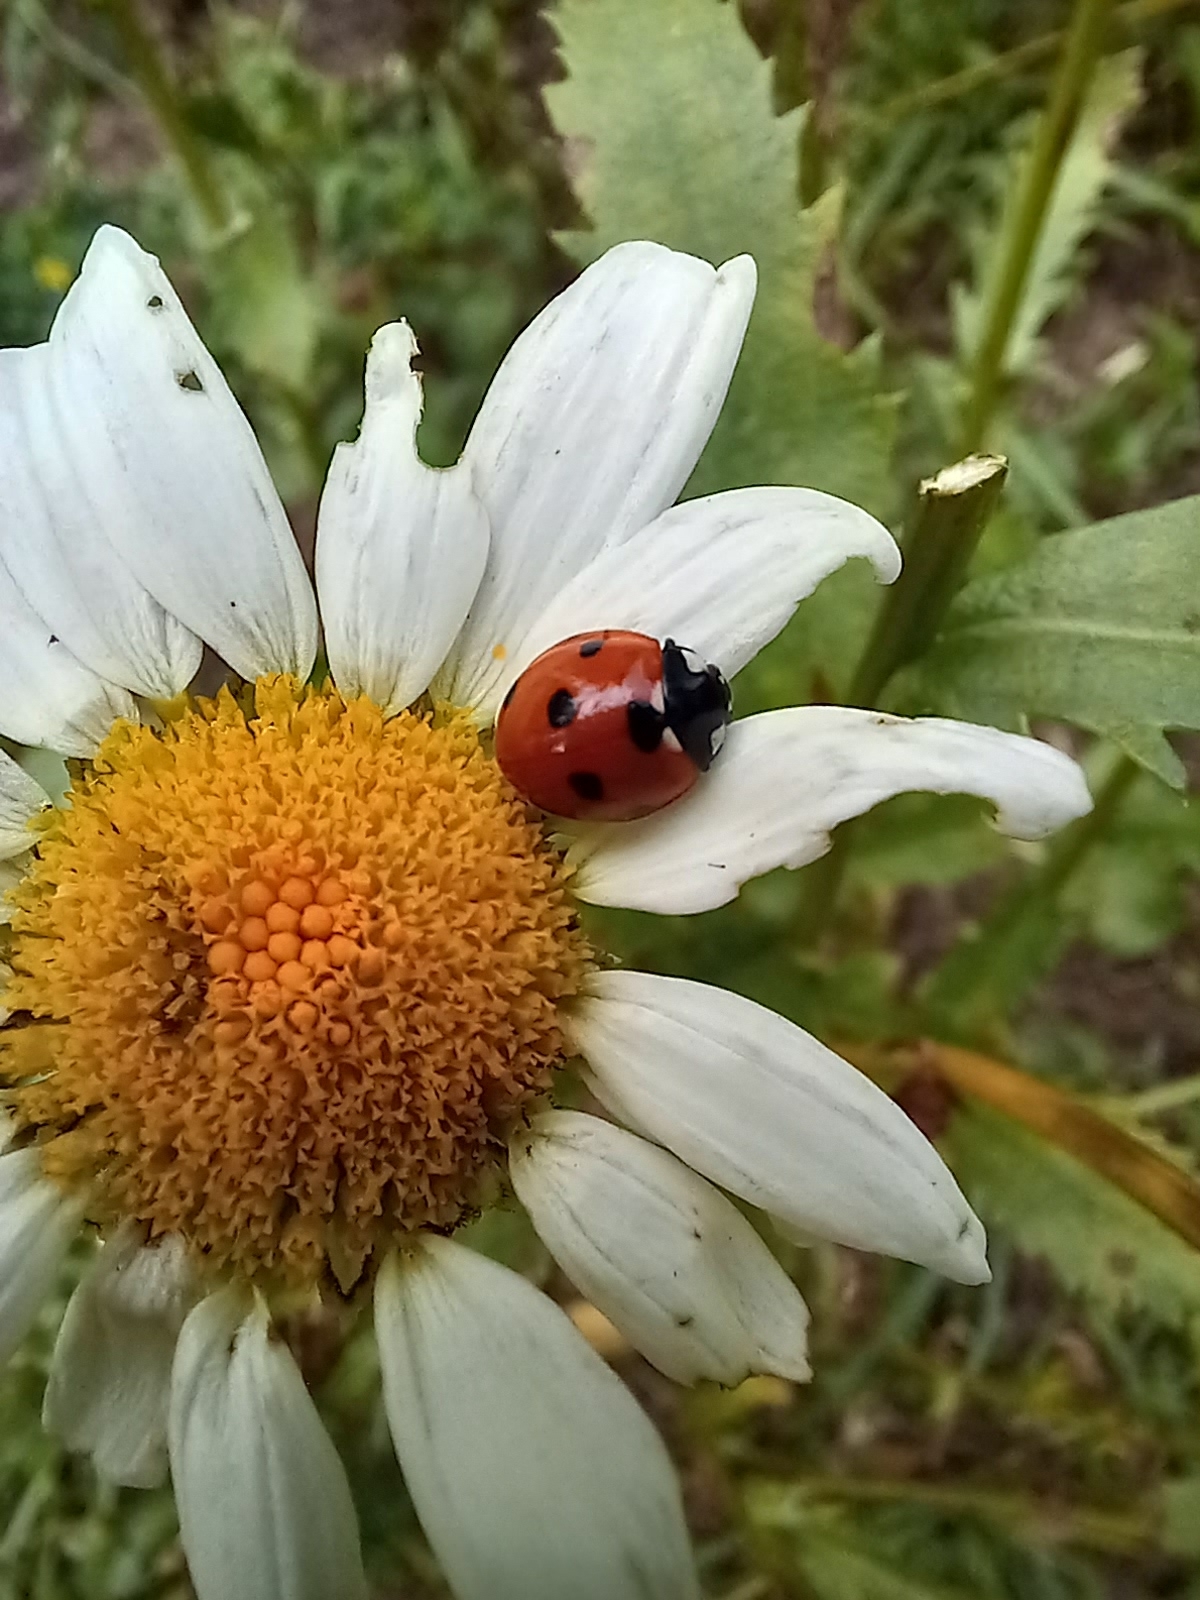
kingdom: Animalia
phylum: Arthropoda
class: Insecta
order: Coleoptera
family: Coccinellidae
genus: Coccinella
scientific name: Coccinella septempunctata
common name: Sevenspotted lady beetle
